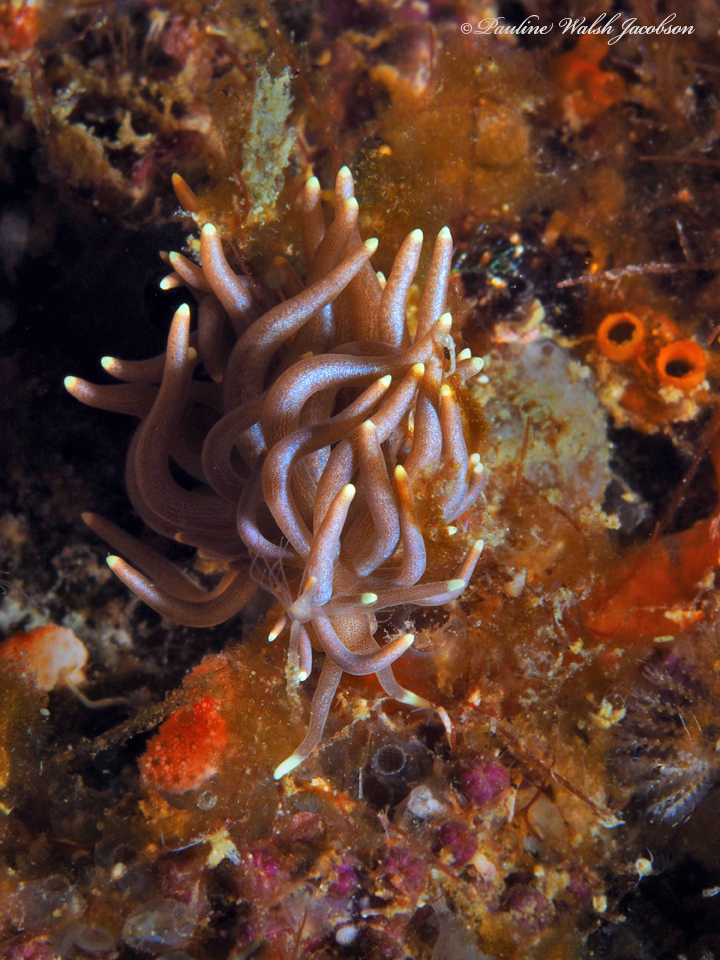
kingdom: Animalia
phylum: Mollusca
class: Gastropoda
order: Nudibranchia
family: Myrrhinidae
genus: Phyllodesmium
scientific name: Phyllodesmium briareum
